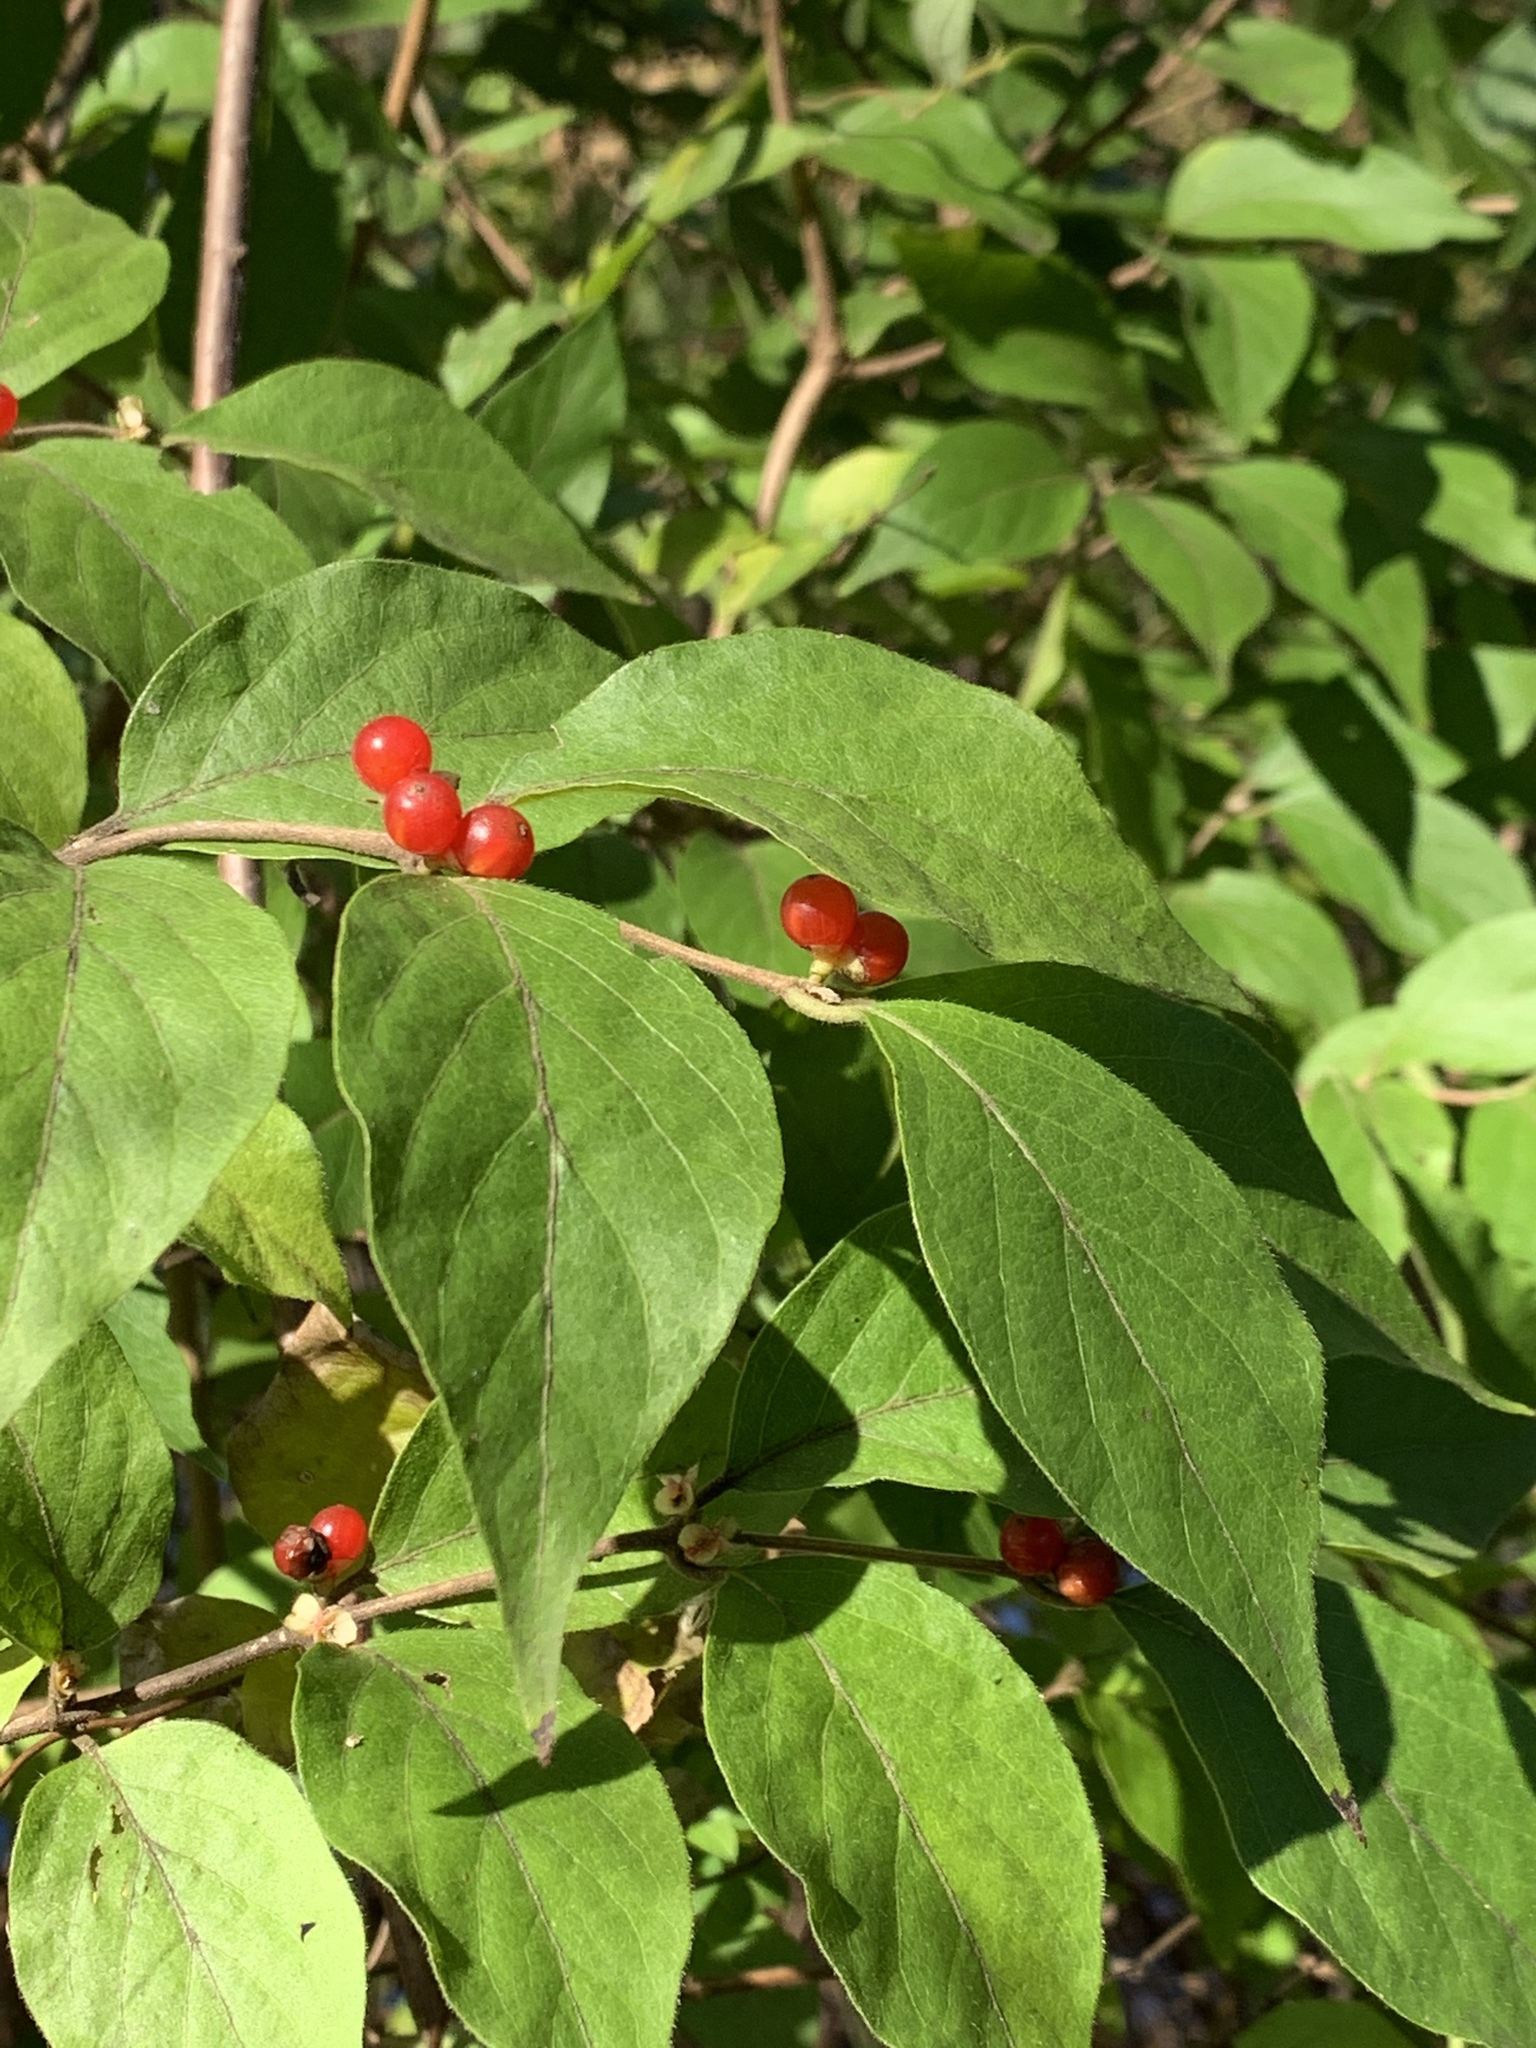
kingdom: Plantae
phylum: Tracheophyta
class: Magnoliopsida
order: Dipsacales
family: Caprifoliaceae
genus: Lonicera
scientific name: Lonicera maackii
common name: Amur honeysuckle
